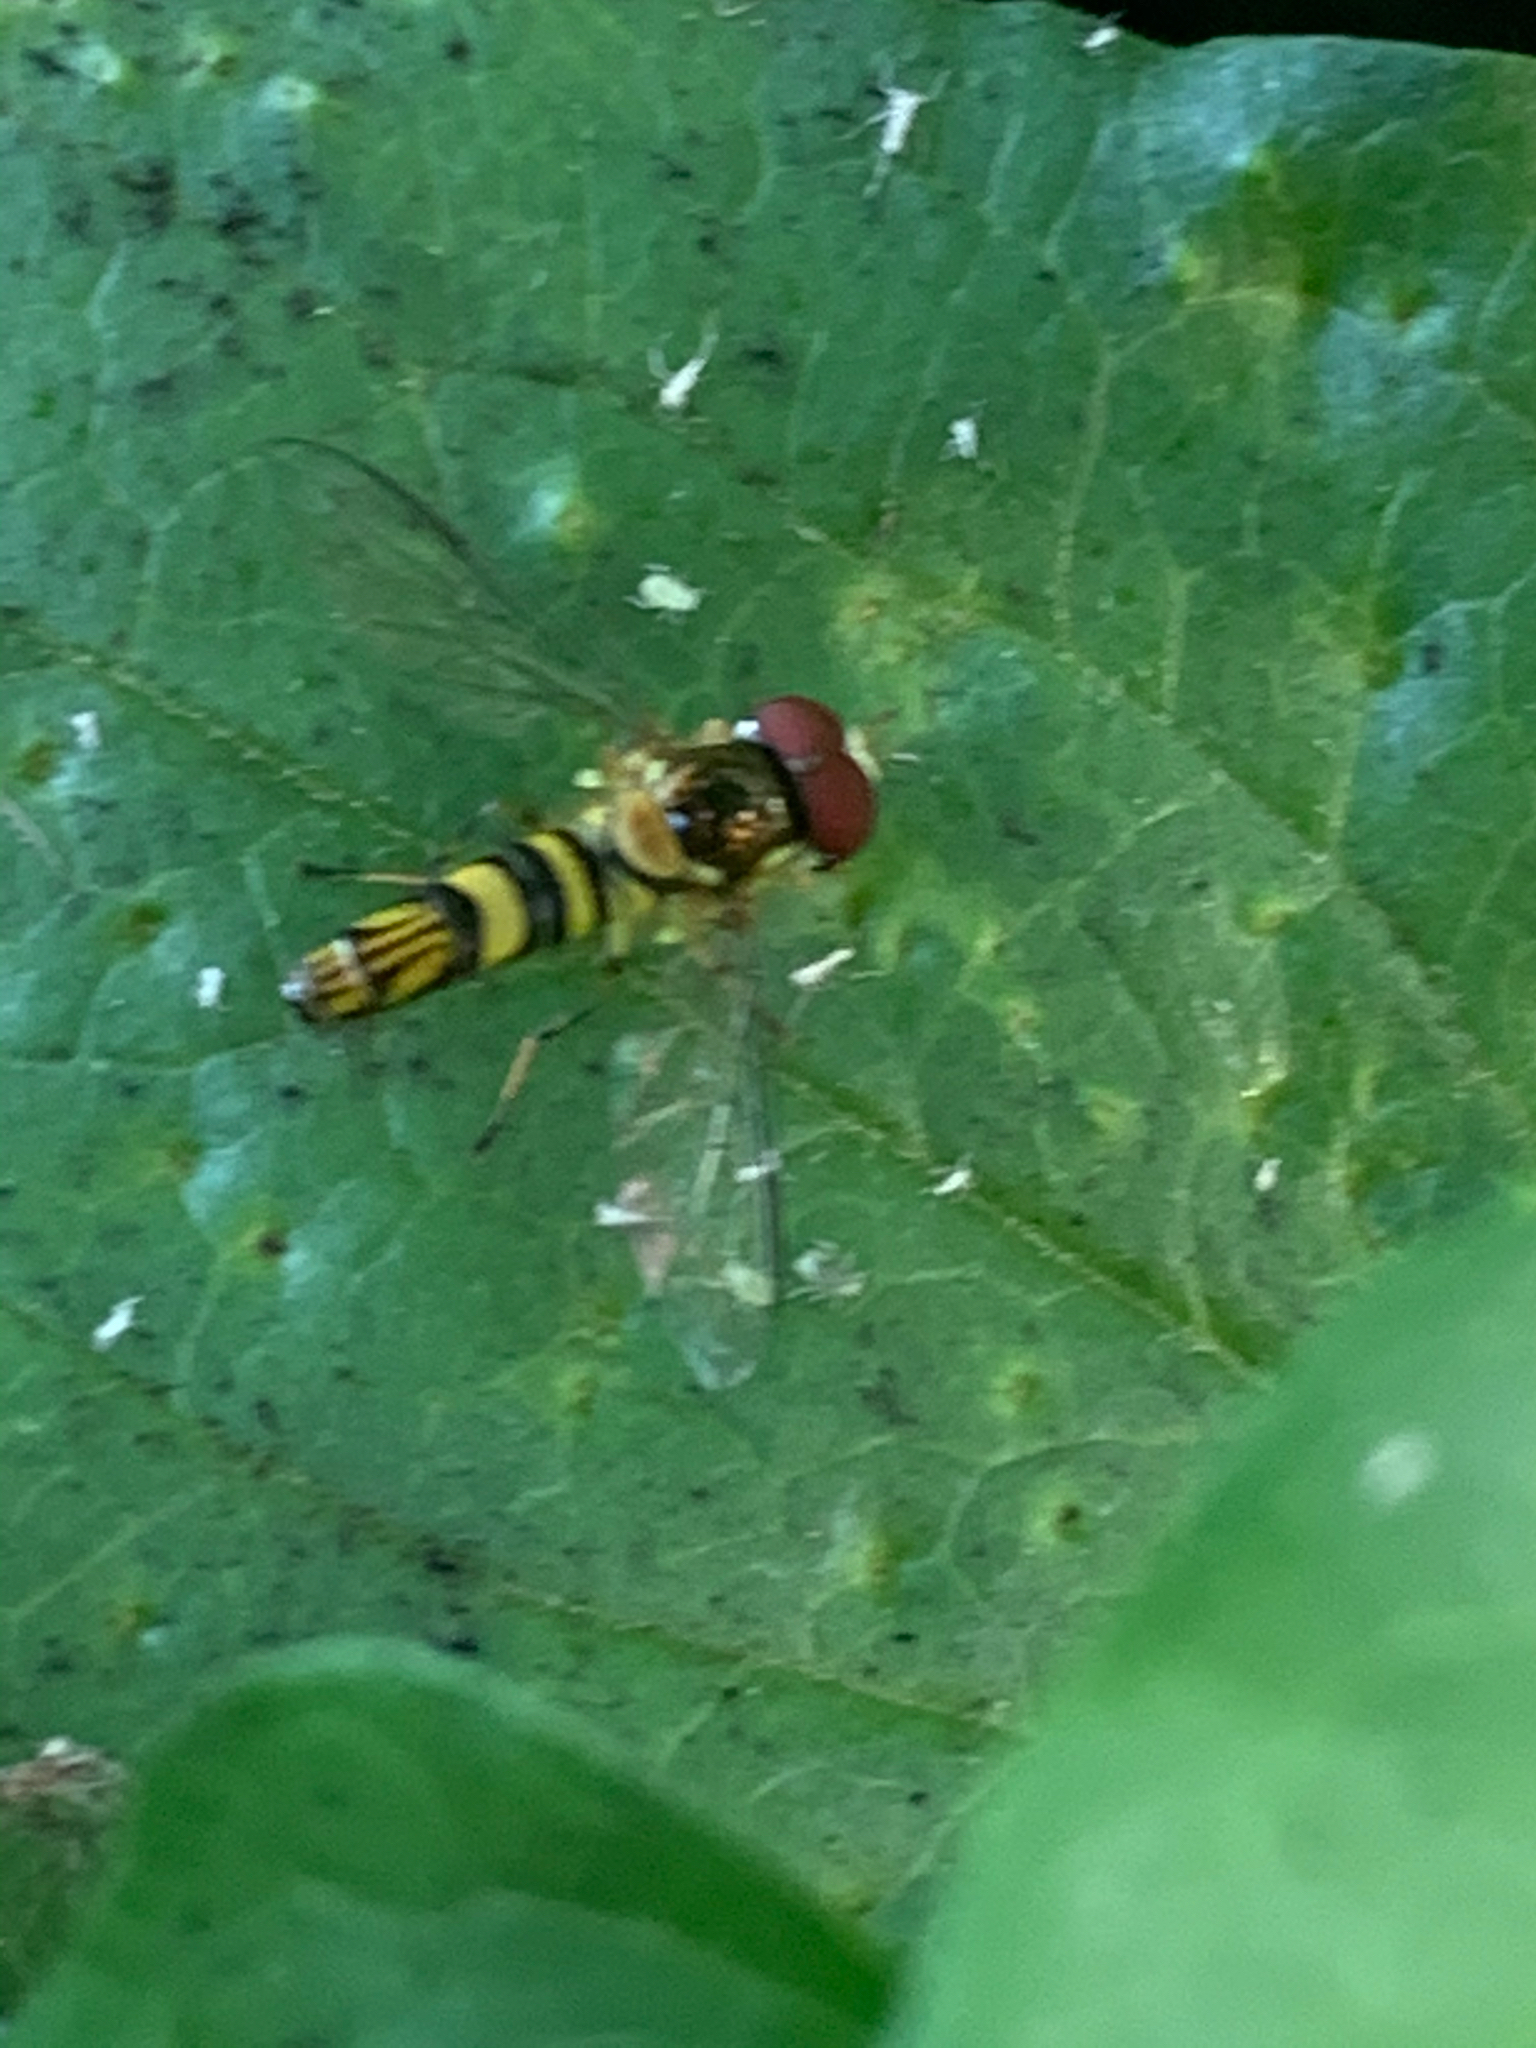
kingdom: Animalia
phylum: Arthropoda
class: Insecta
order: Diptera
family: Syrphidae
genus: Allograpta
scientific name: Allograpta obliqua
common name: Common oblique syrphid
